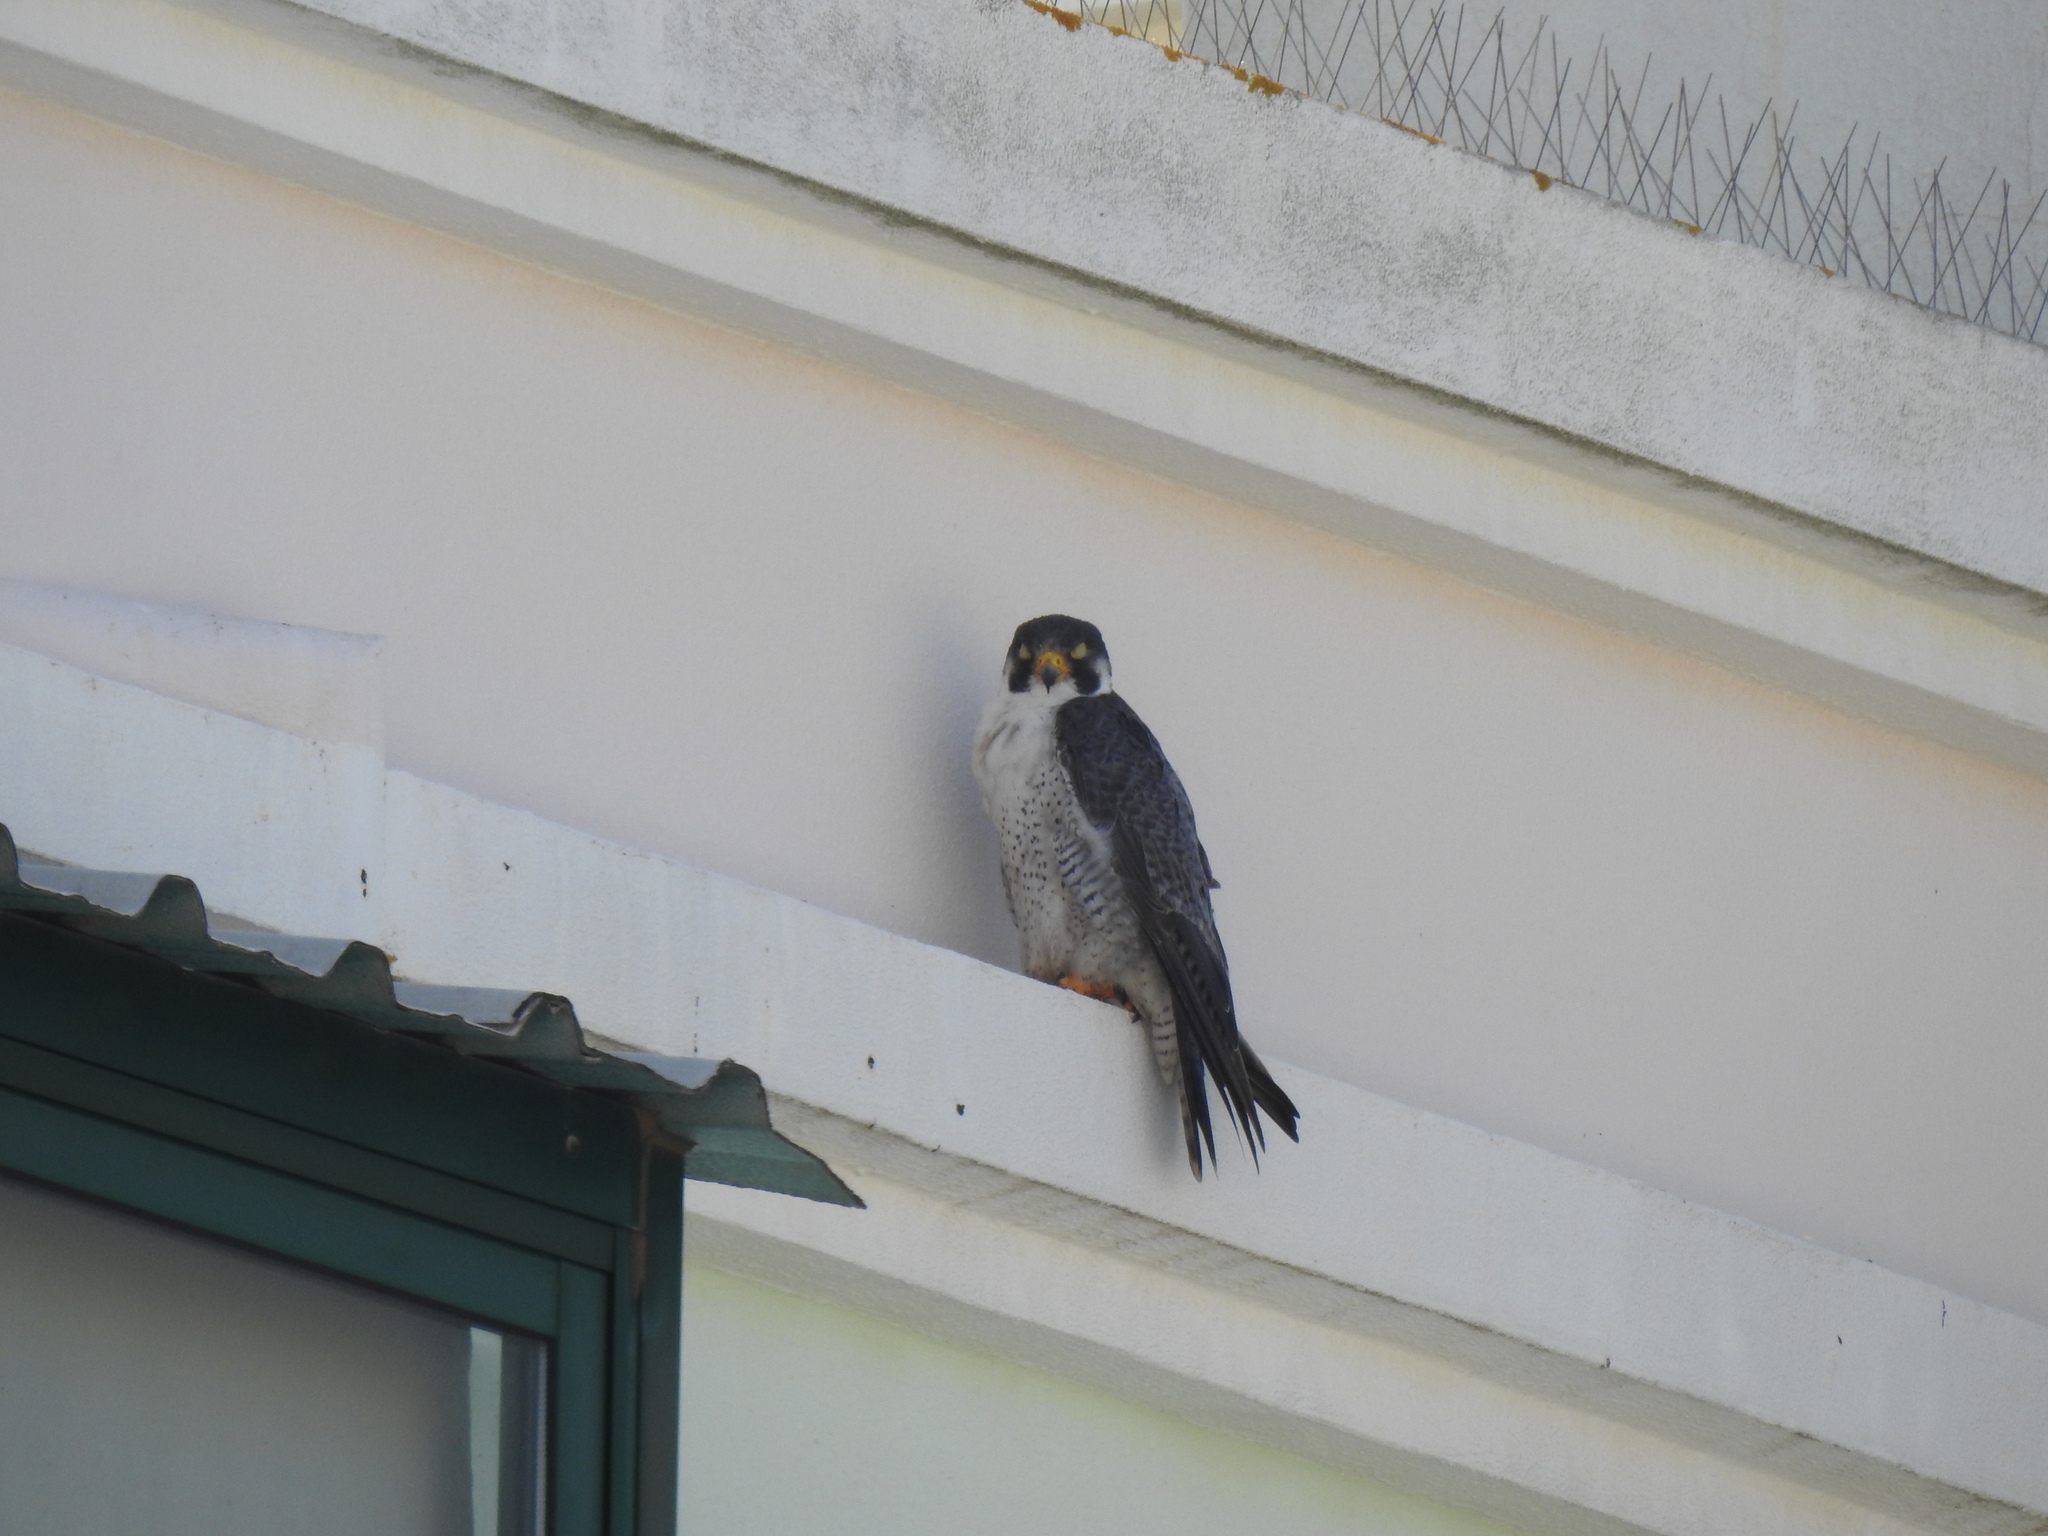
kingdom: Animalia
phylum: Chordata
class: Aves
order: Falconiformes
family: Falconidae
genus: Falco
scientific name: Falco peregrinus
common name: Peregrine falcon
